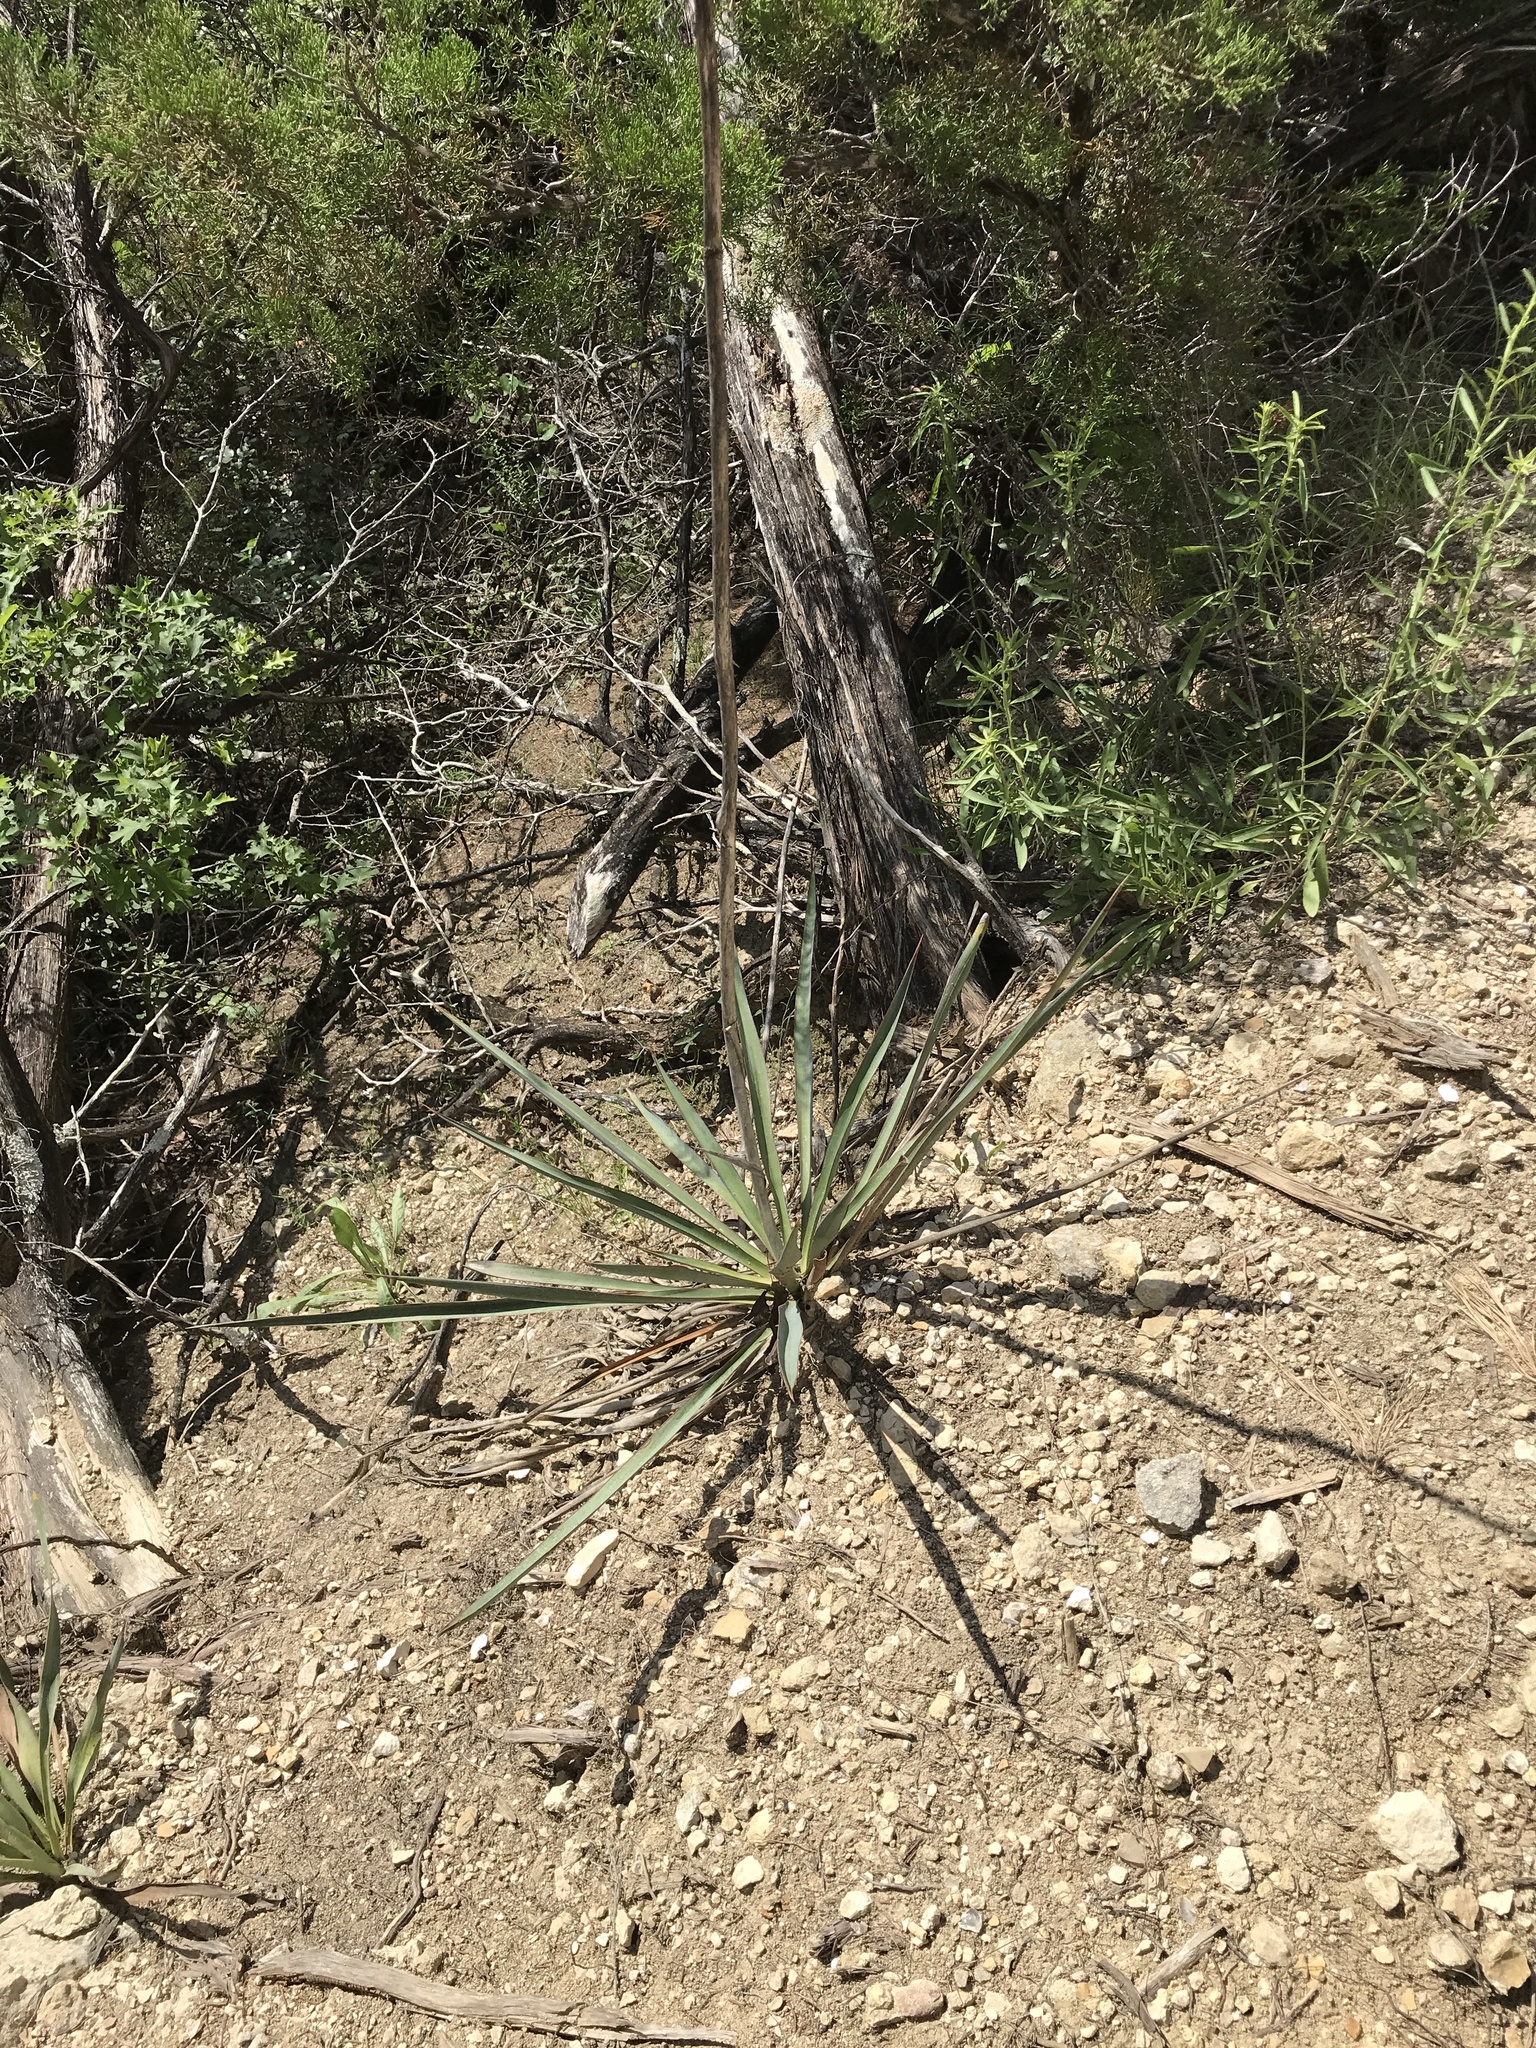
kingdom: Plantae
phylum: Tracheophyta
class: Liliopsida
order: Asparagales
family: Asparagaceae
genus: Yucca
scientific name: Yucca pallida
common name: Pale leaf yucca
